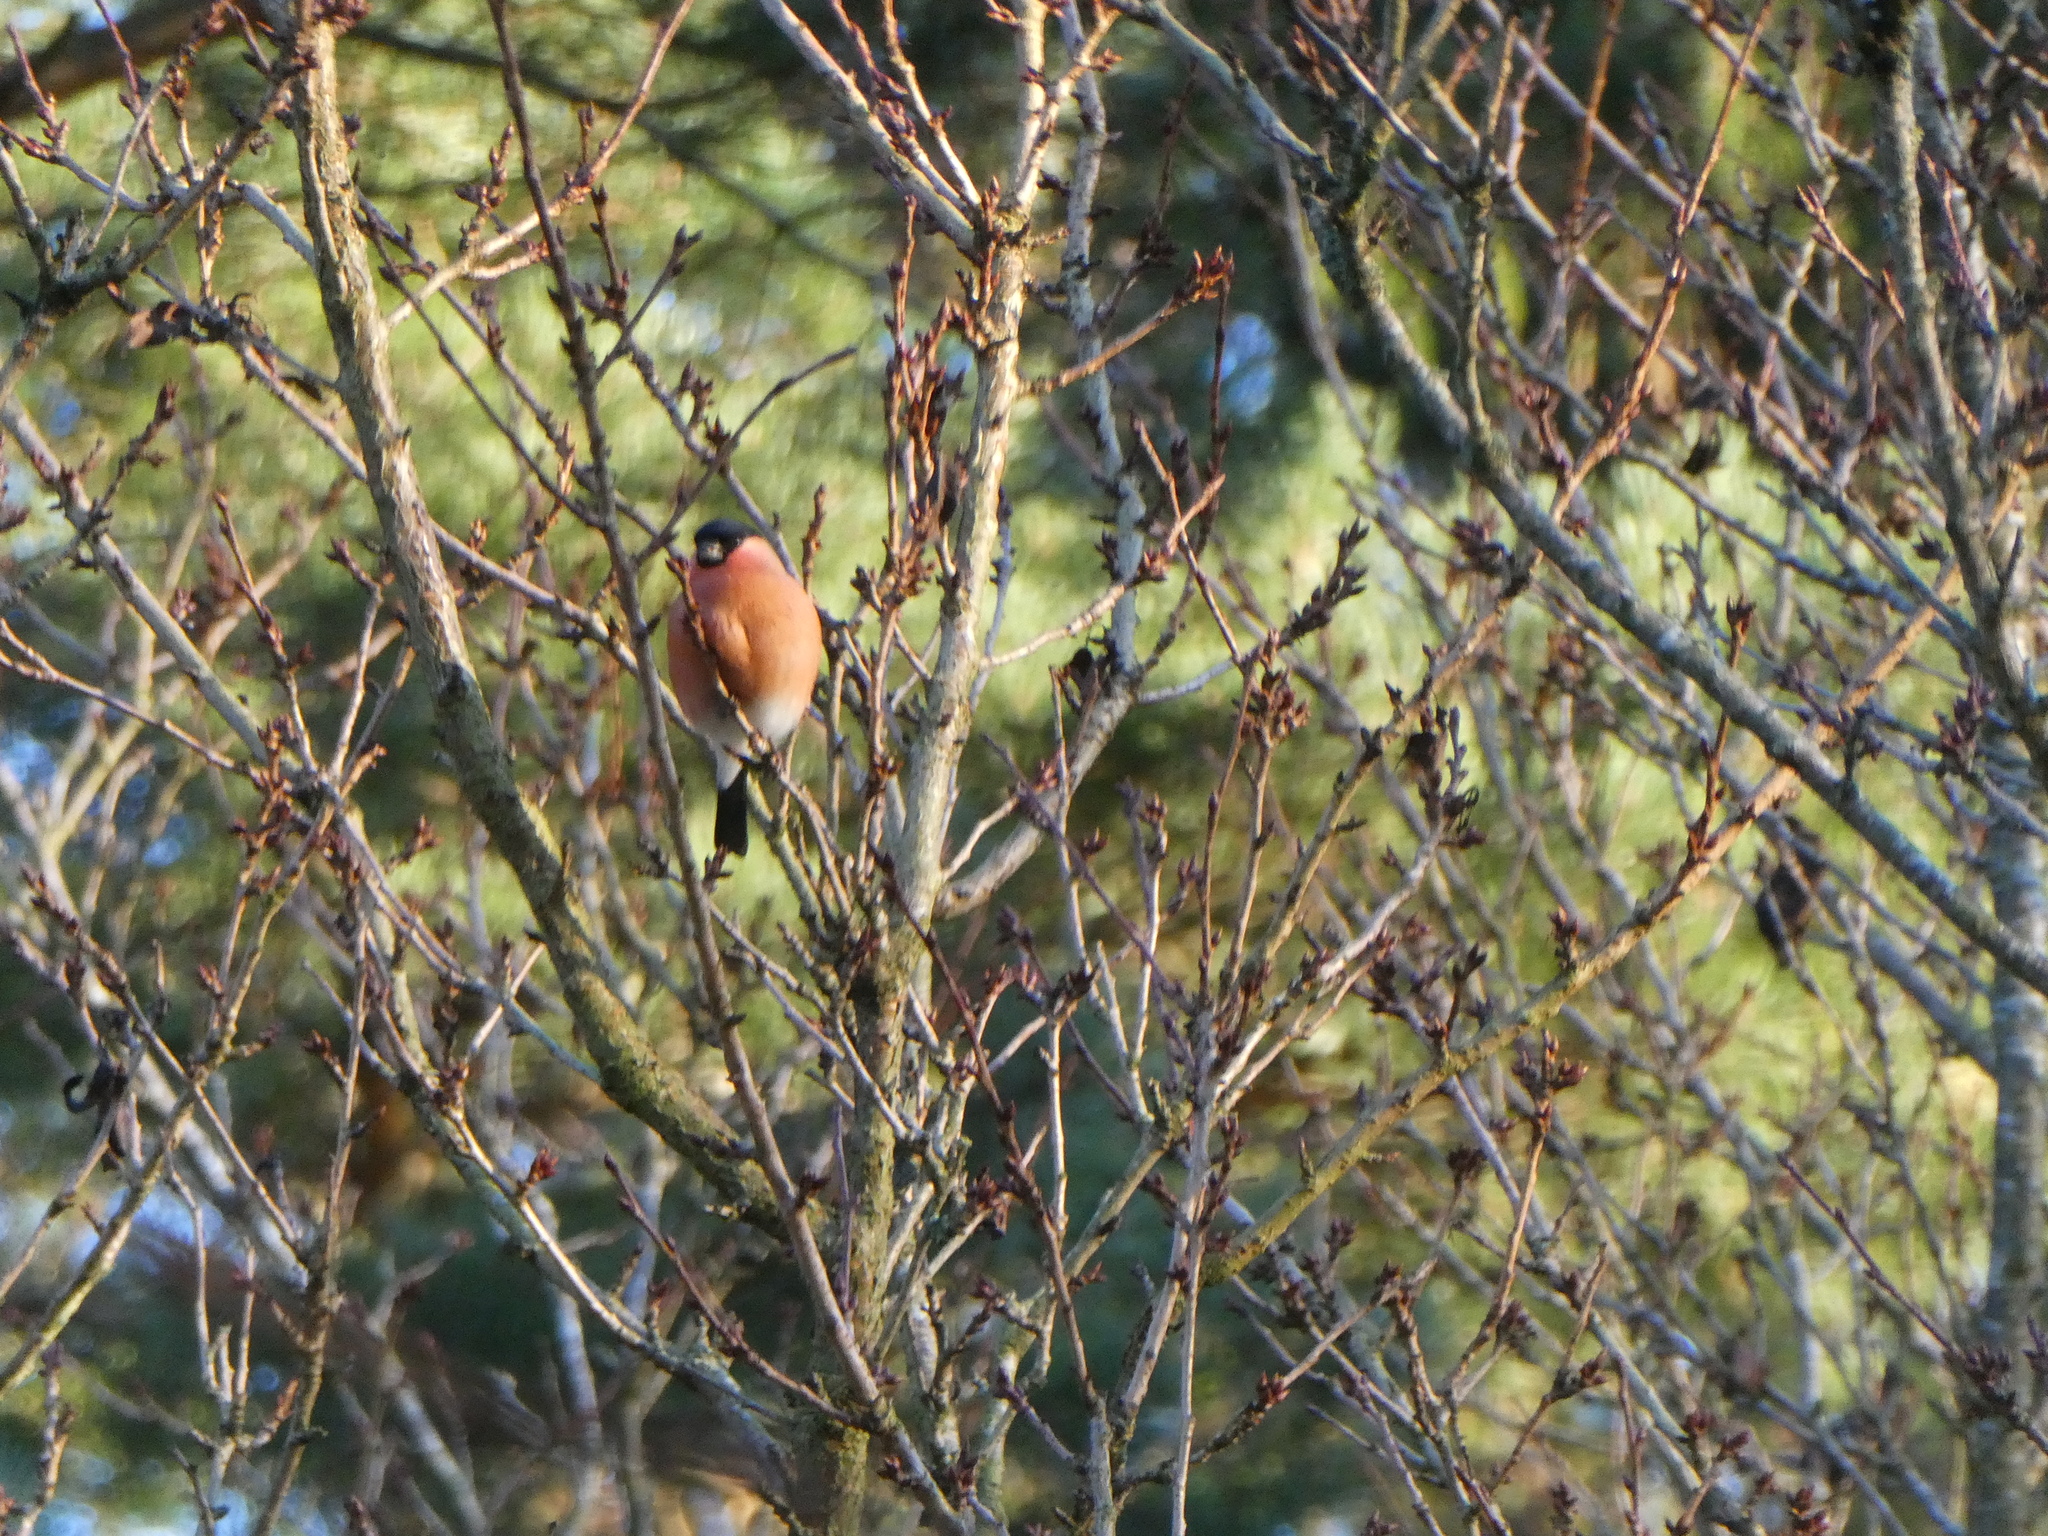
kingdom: Animalia
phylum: Chordata
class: Aves
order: Passeriformes
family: Fringillidae
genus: Pyrrhula
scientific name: Pyrrhula pyrrhula
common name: Eurasian bullfinch
